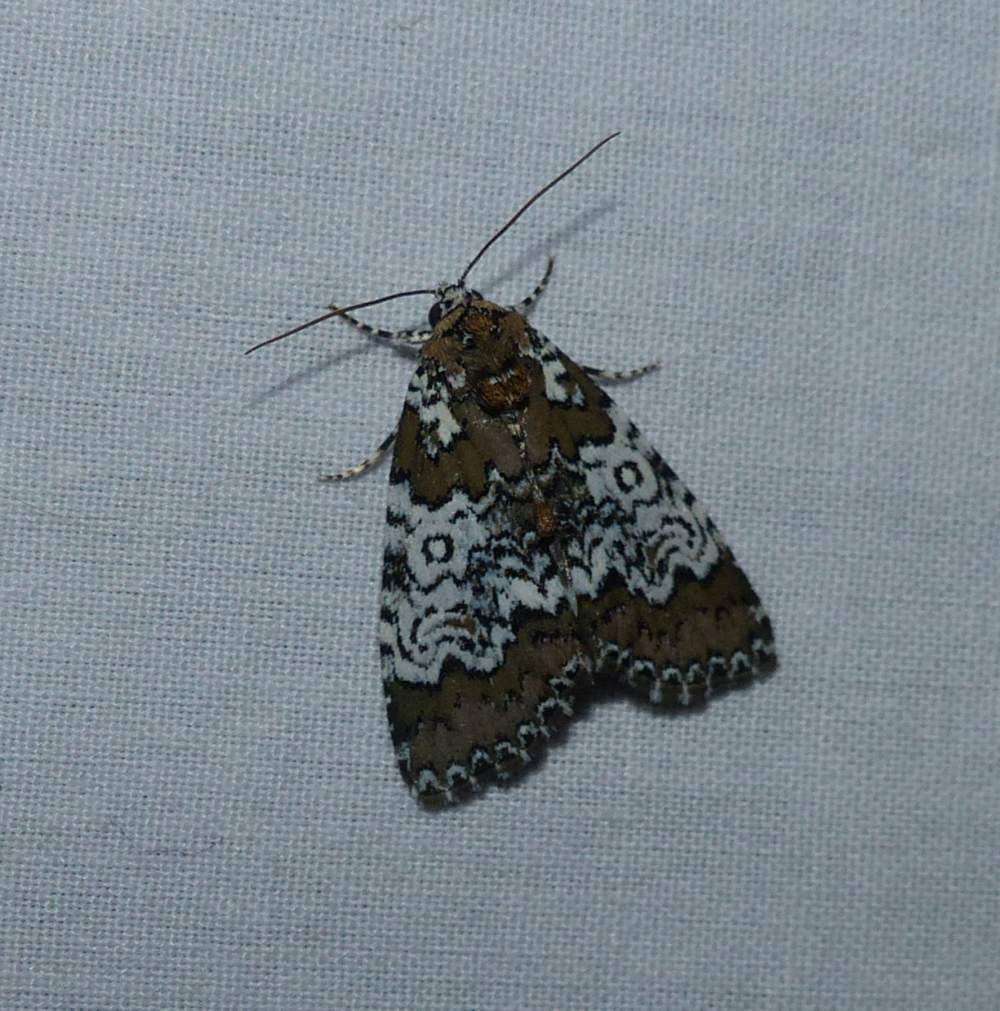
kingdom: Animalia
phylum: Arthropoda
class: Insecta
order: Lepidoptera
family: Noctuidae
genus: Cerma
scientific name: Cerma cora
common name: Bird dropping moth
